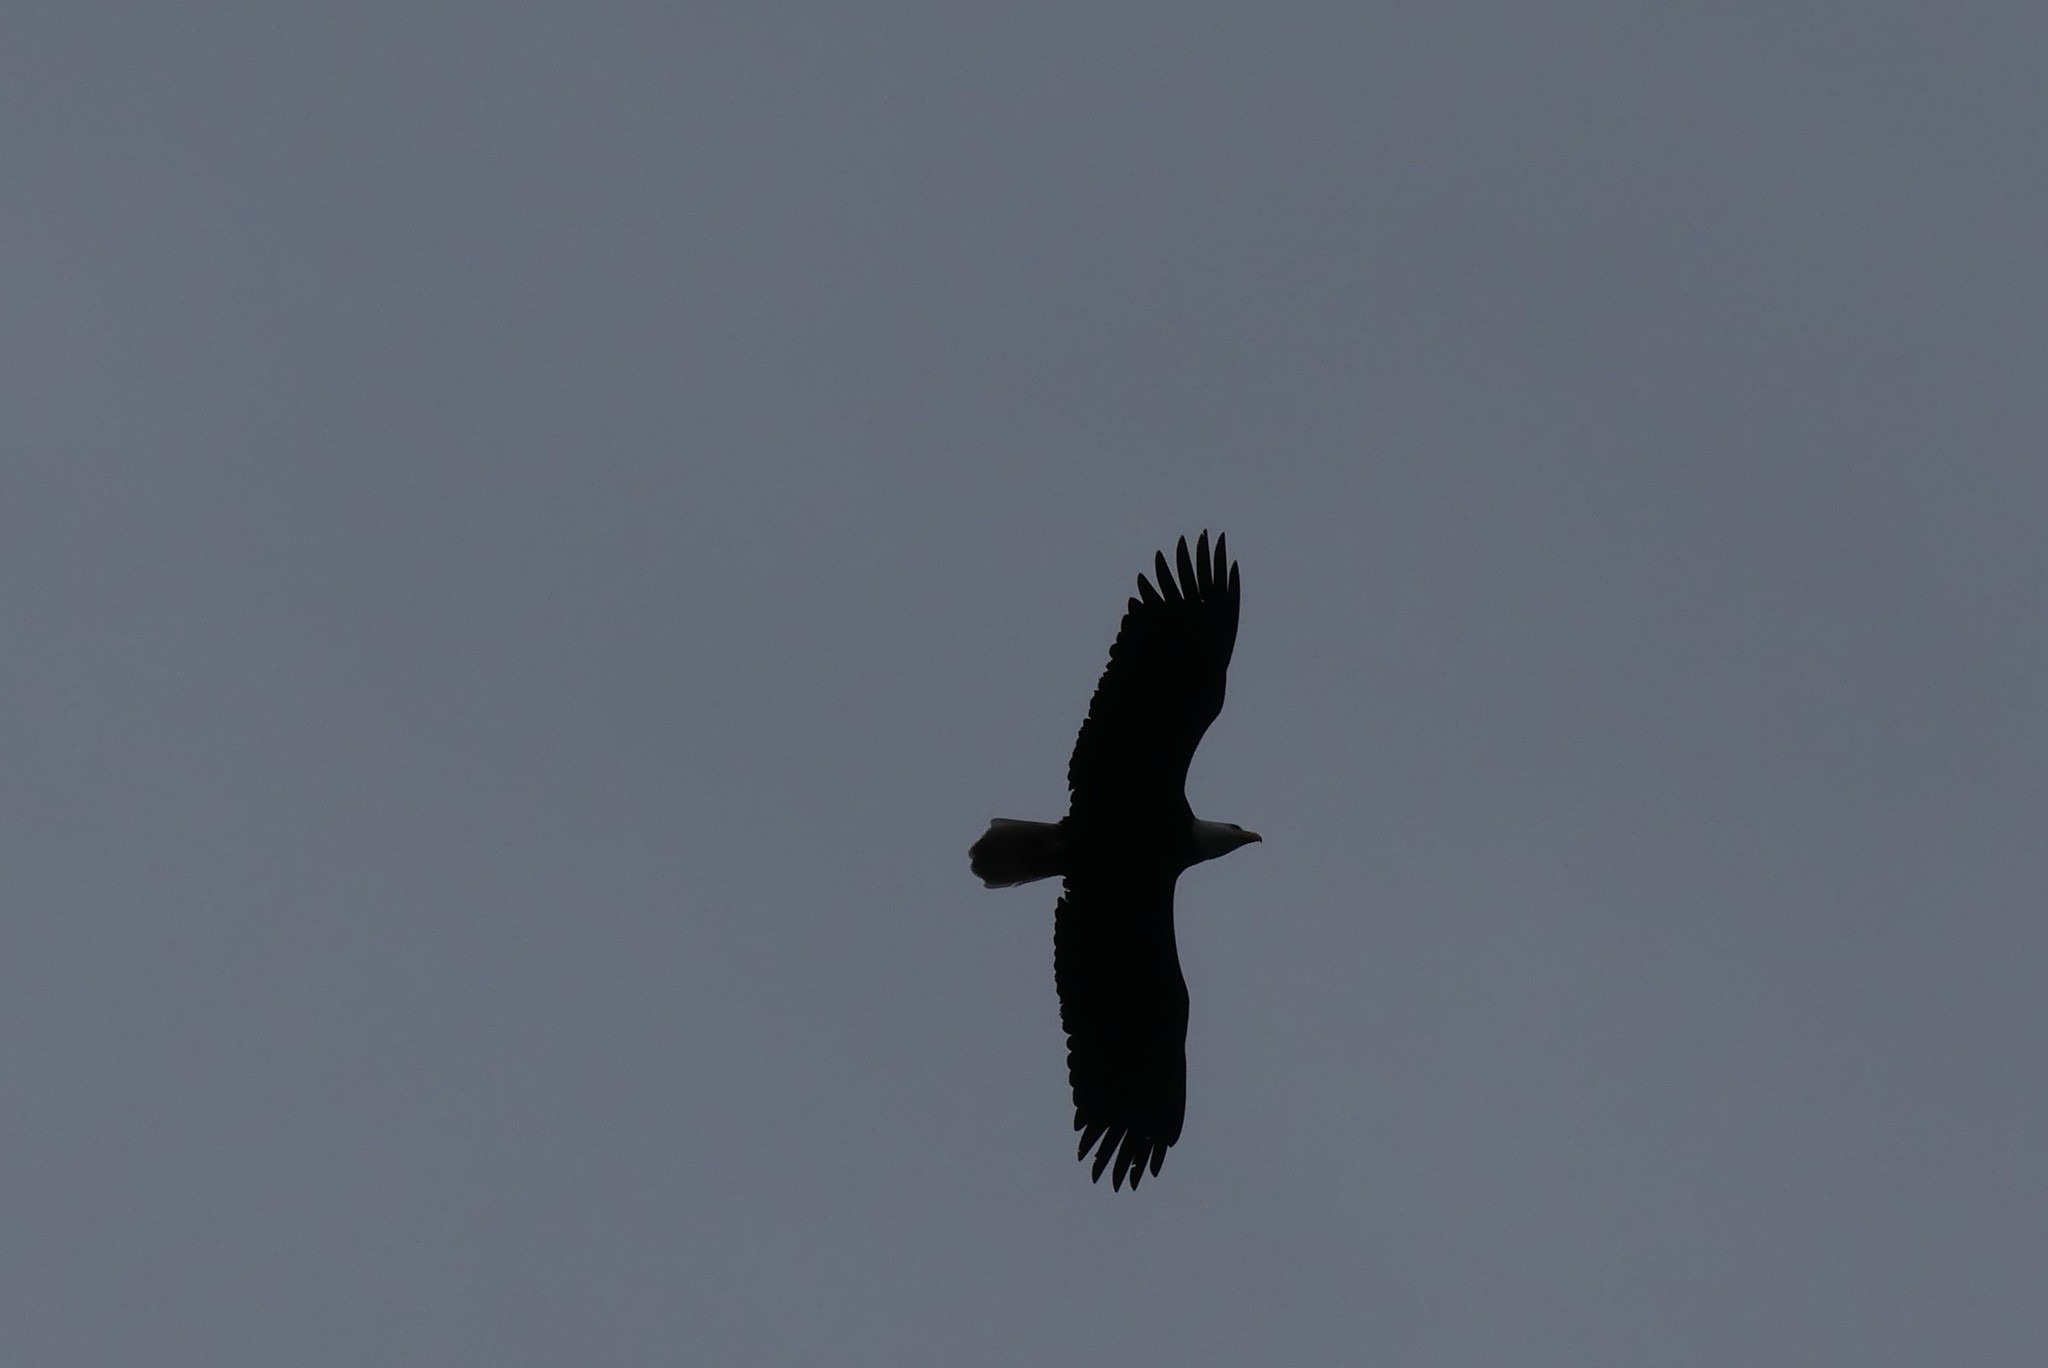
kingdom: Animalia
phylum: Chordata
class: Aves
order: Accipitriformes
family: Accipitridae
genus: Haliaeetus
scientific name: Haliaeetus leucocephalus
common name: Bald eagle
